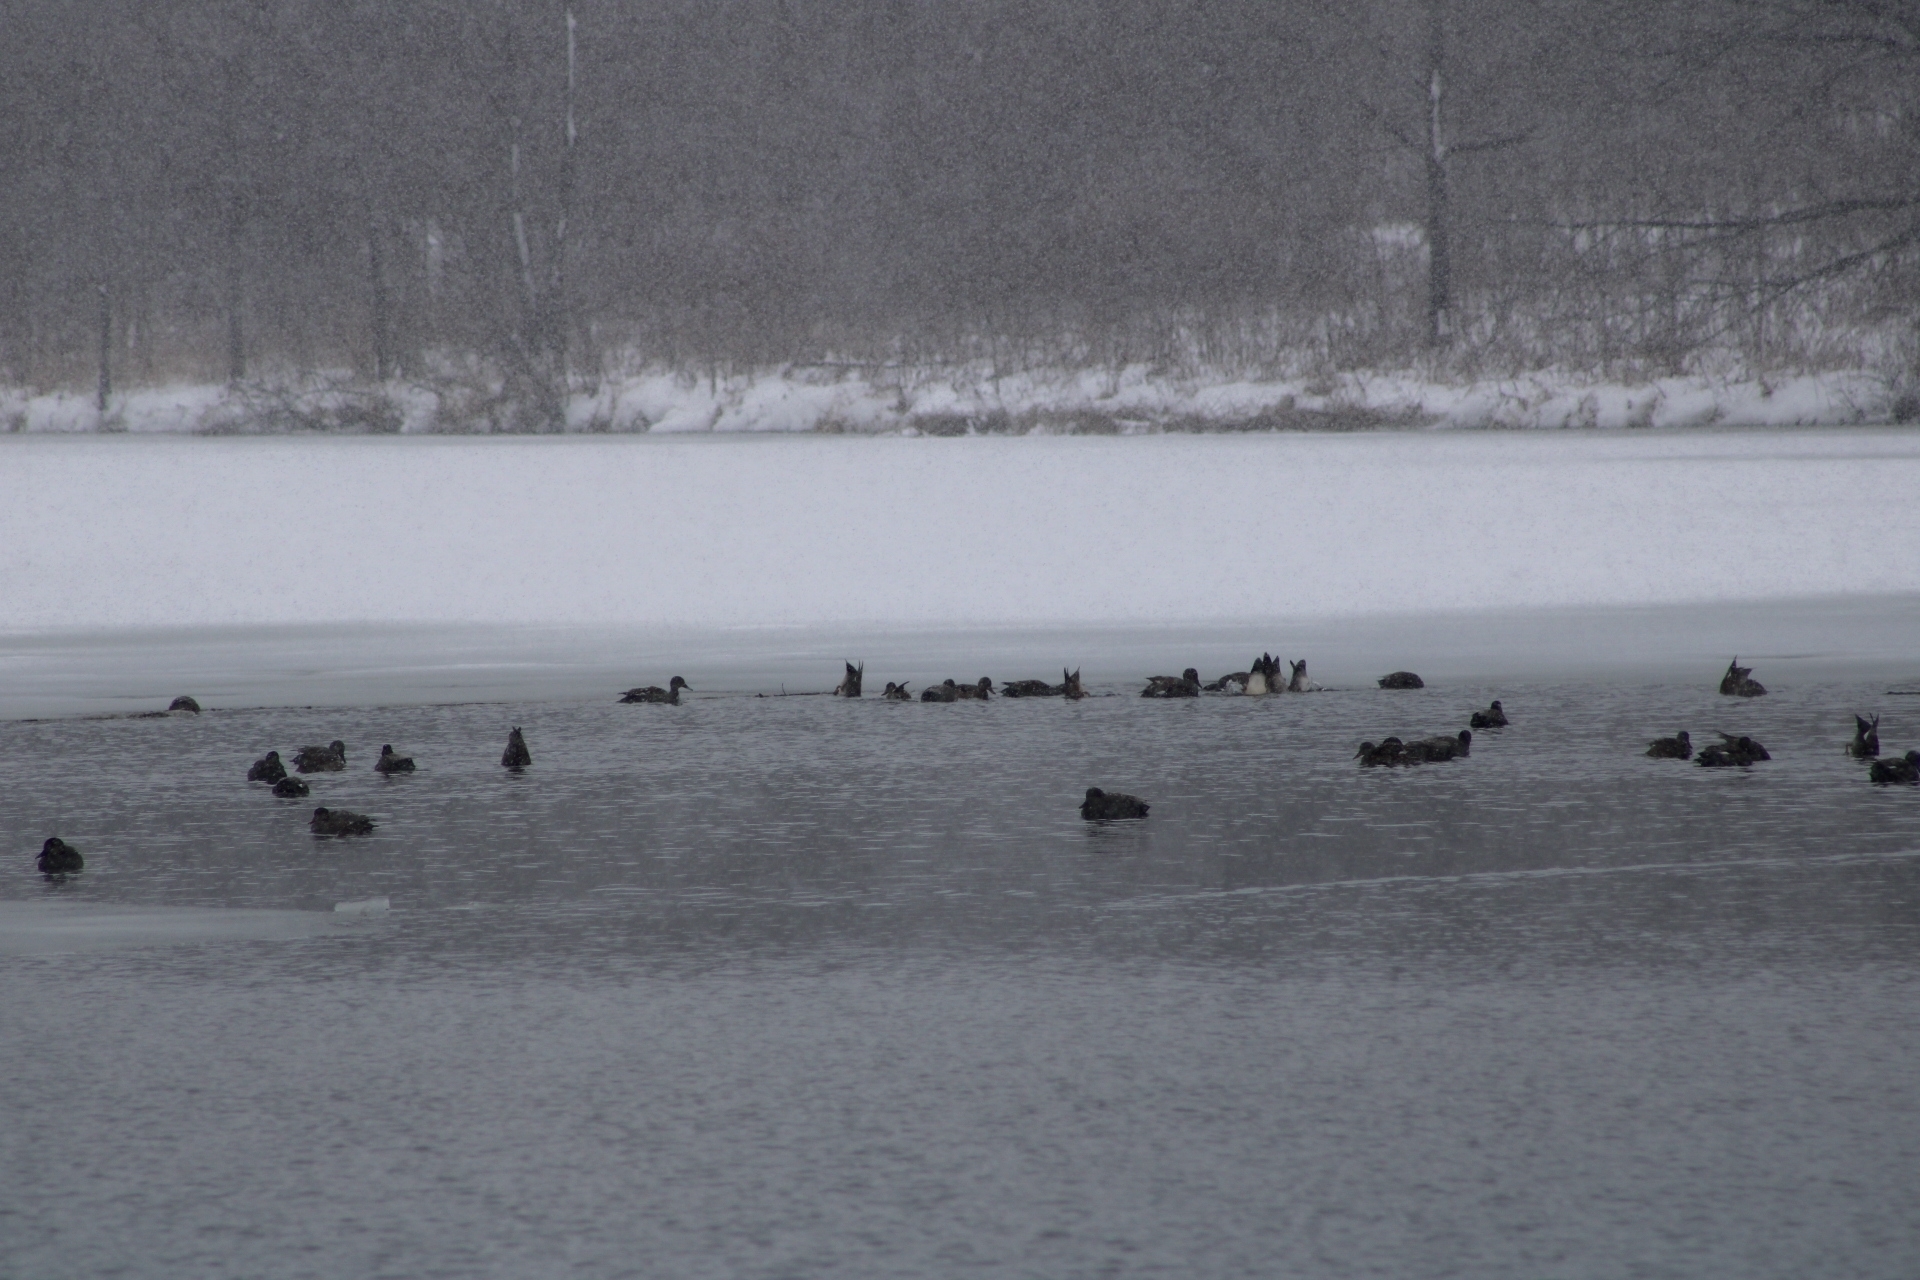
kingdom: Animalia
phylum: Chordata
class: Aves
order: Anseriformes
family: Anatidae
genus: Mareca
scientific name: Mareca strepera
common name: Gadwall
